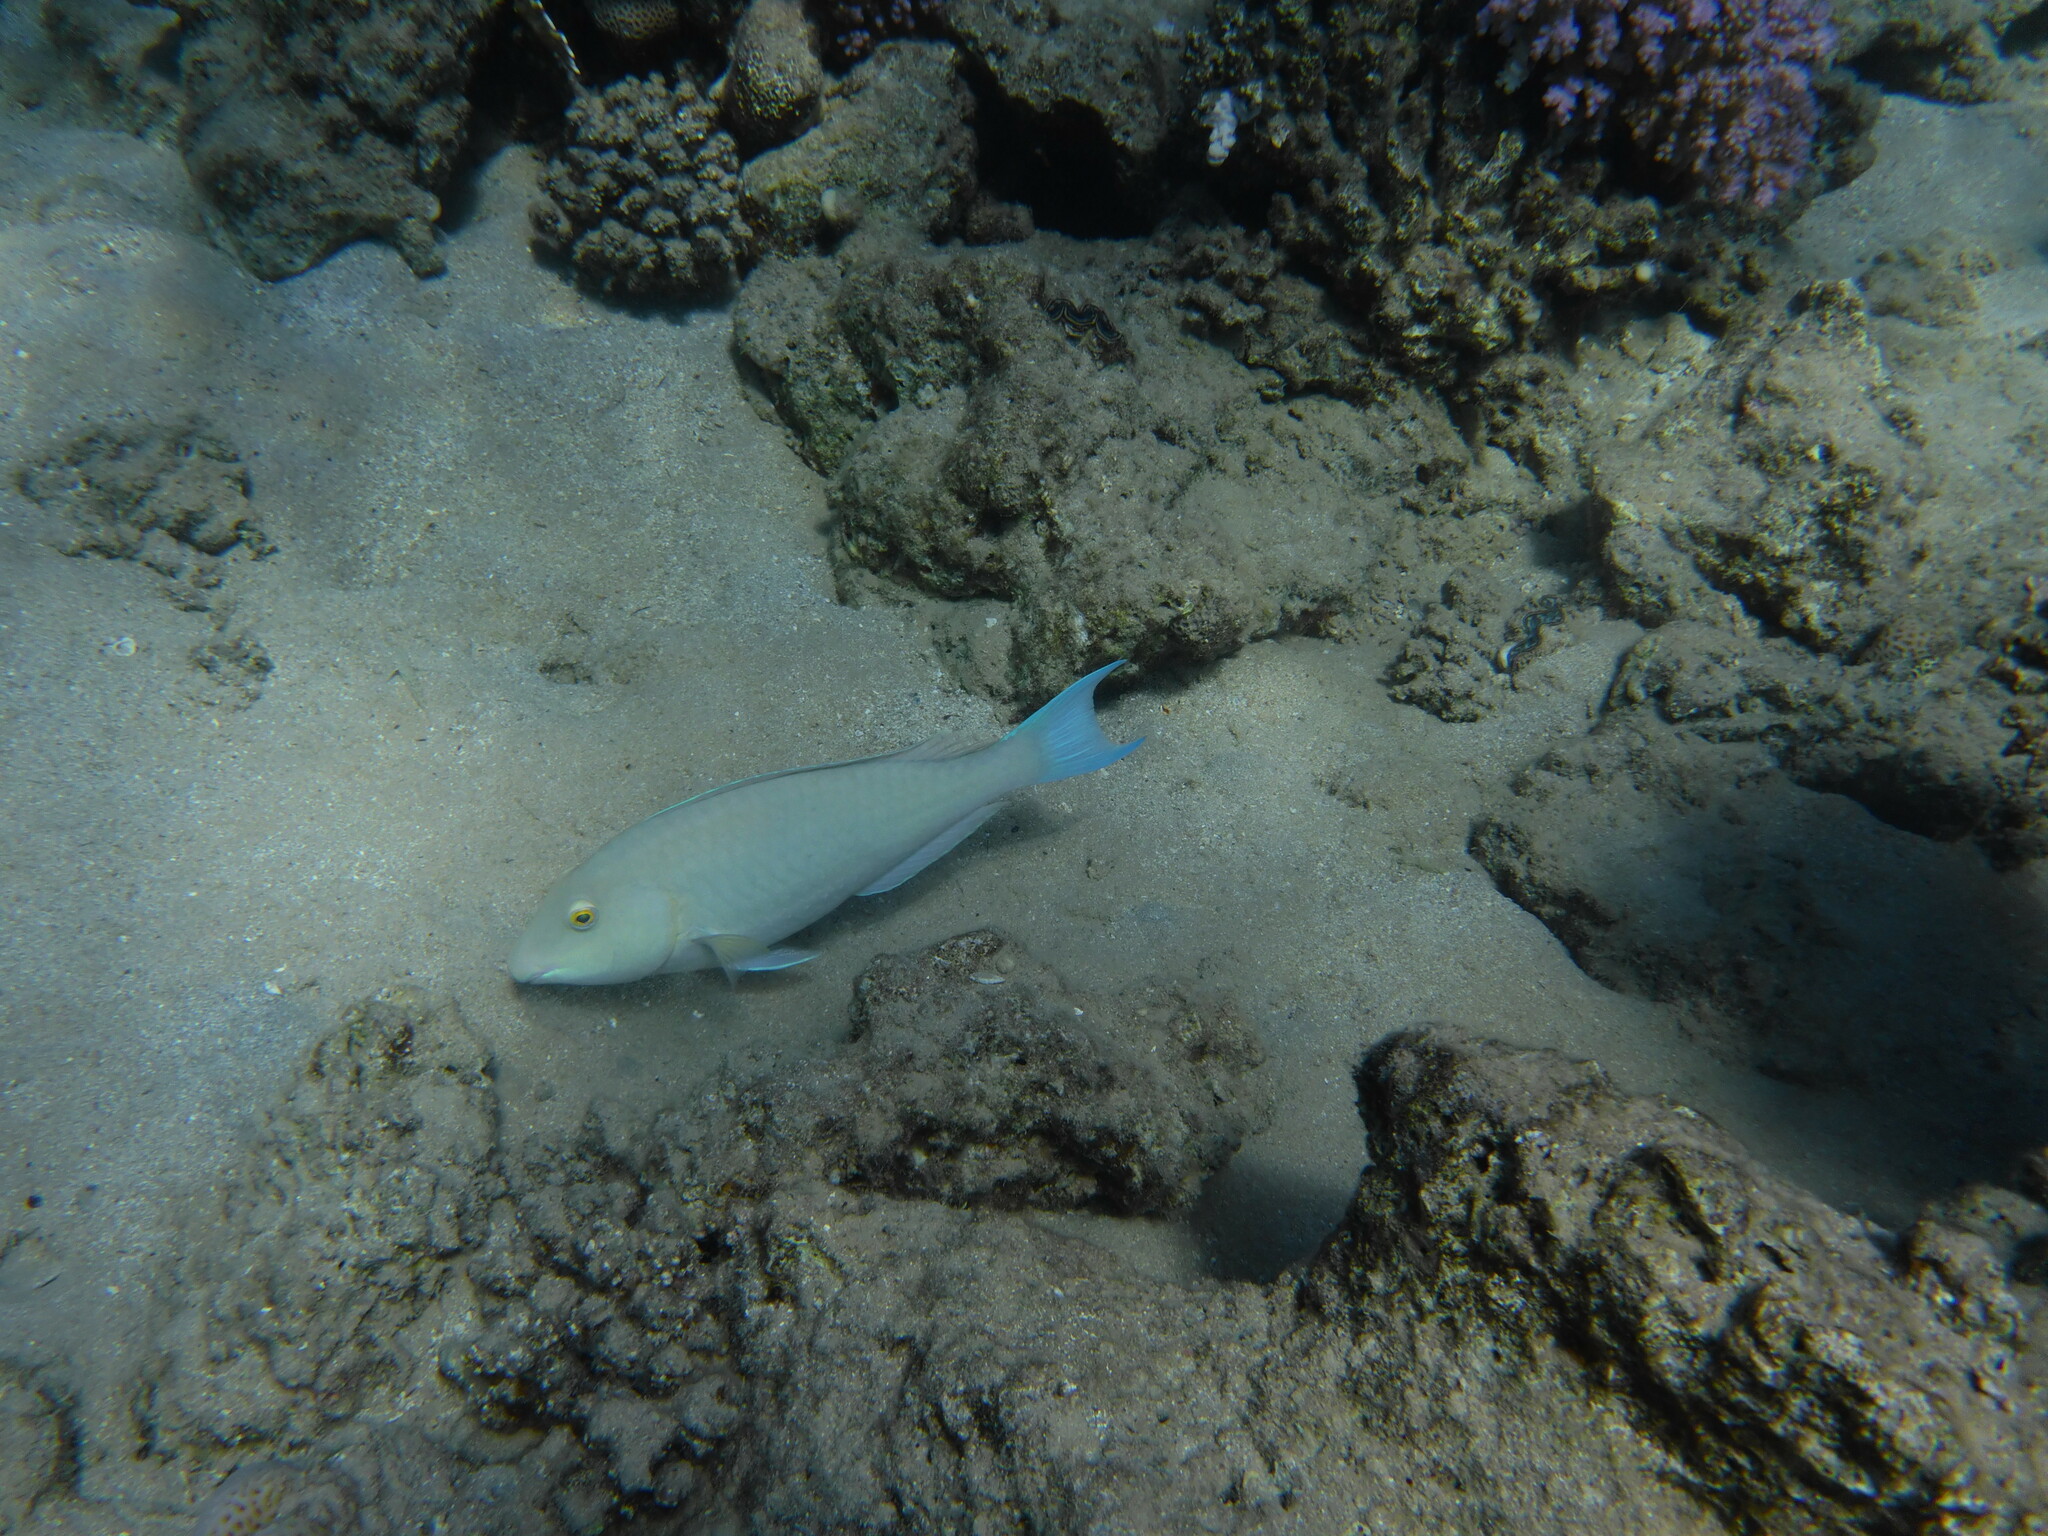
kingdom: Animalia
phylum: Chordata
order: Perciformes
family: Scaridae
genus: Hipposcarus
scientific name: Hipposcarus harid
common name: Candelamoa parrotfish
